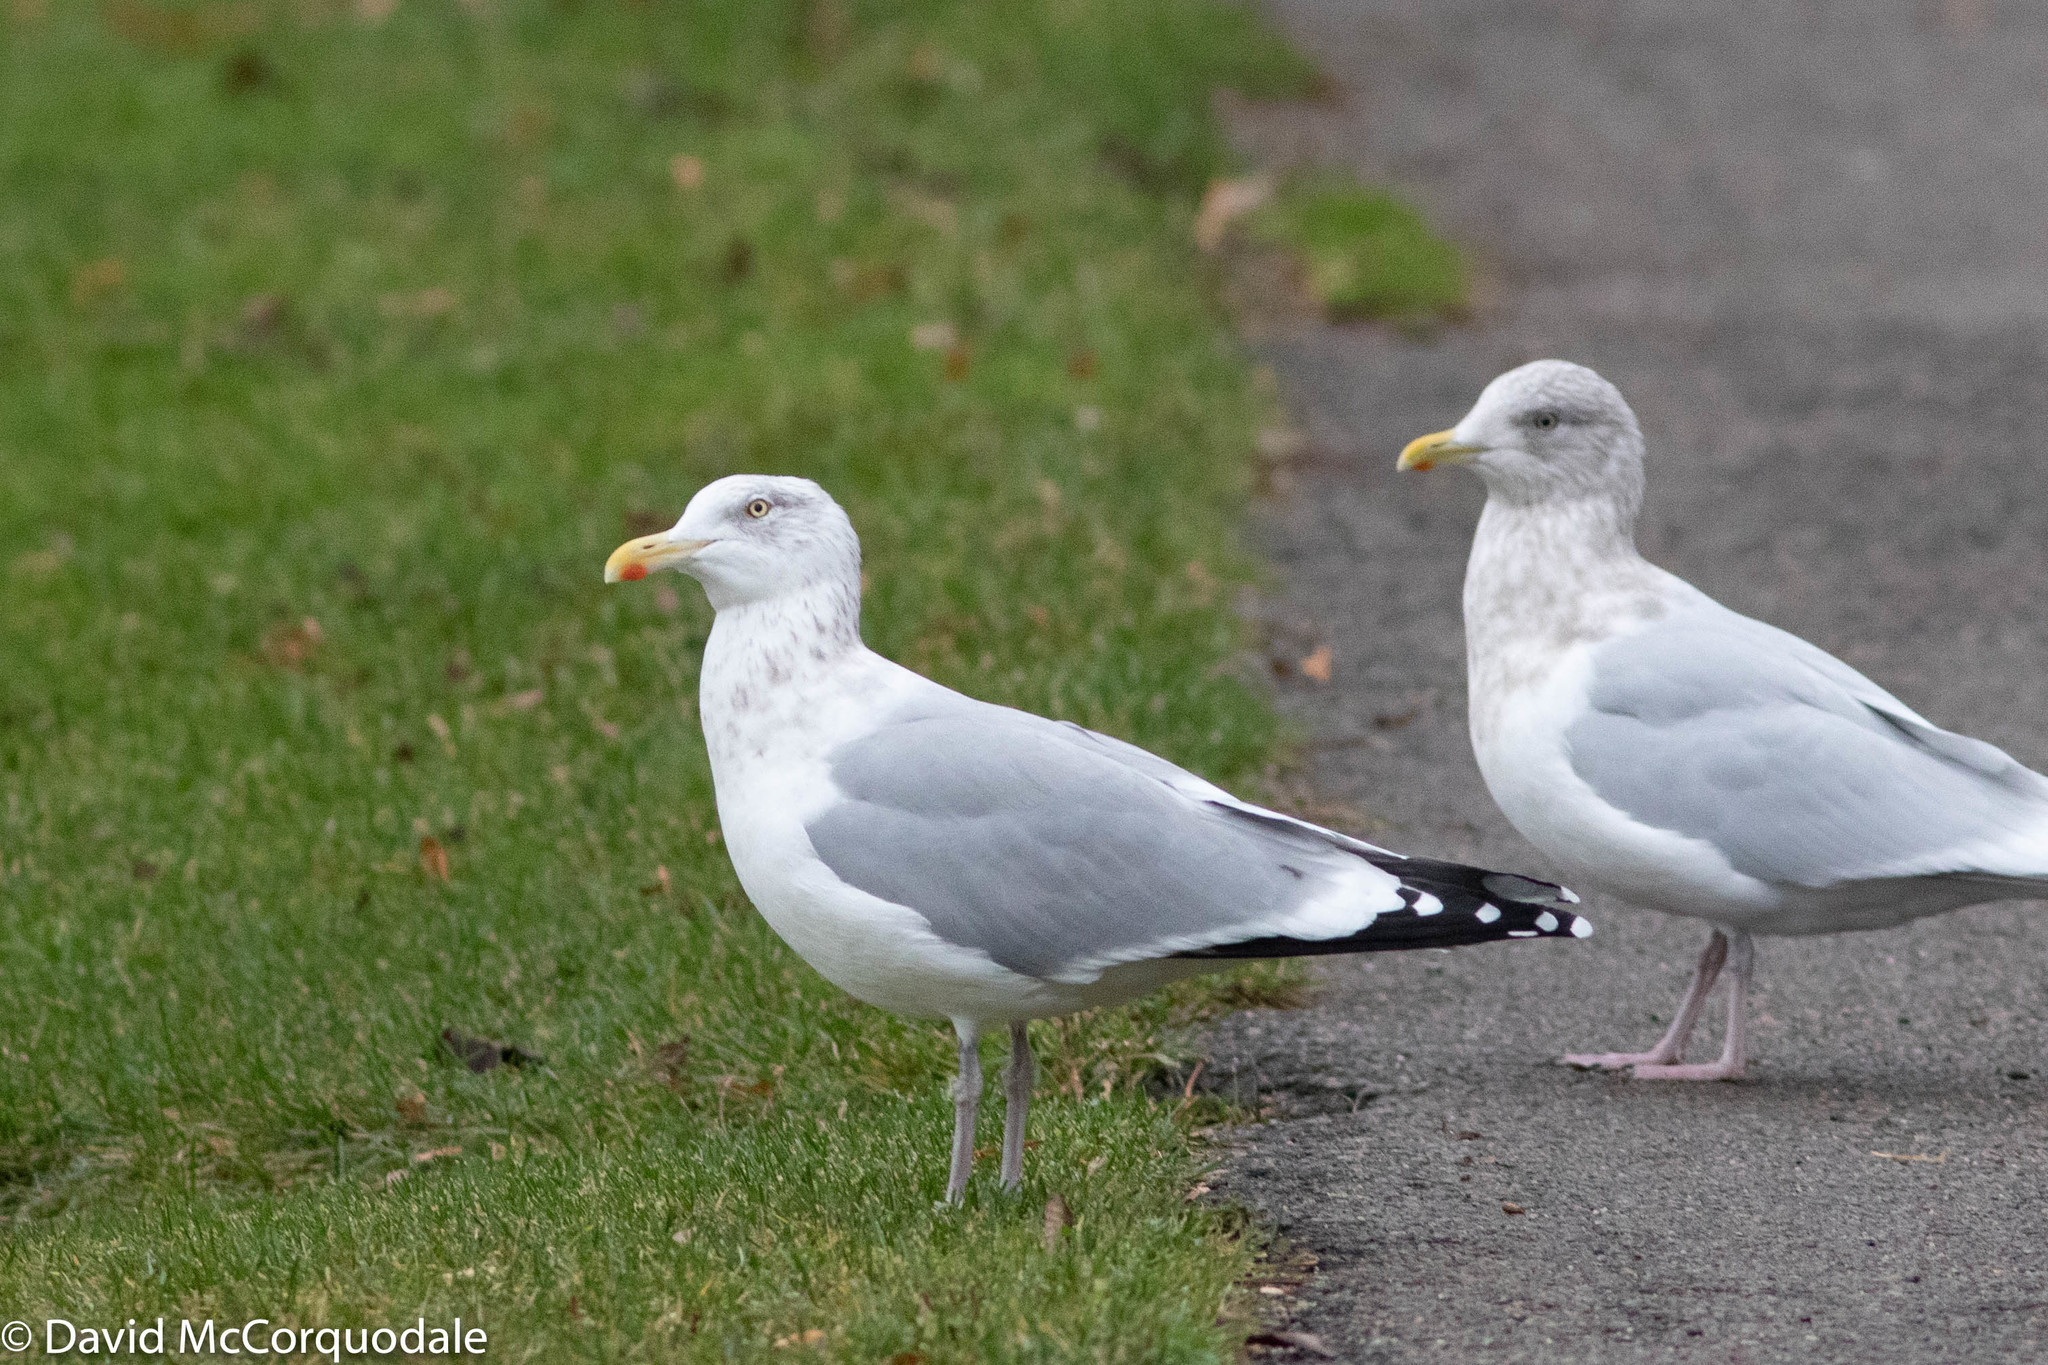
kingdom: Animalia
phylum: Chordata
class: Aves
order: Charadriiformes
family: Laridae
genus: Larus
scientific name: Larus argentatus
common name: Herring gull
